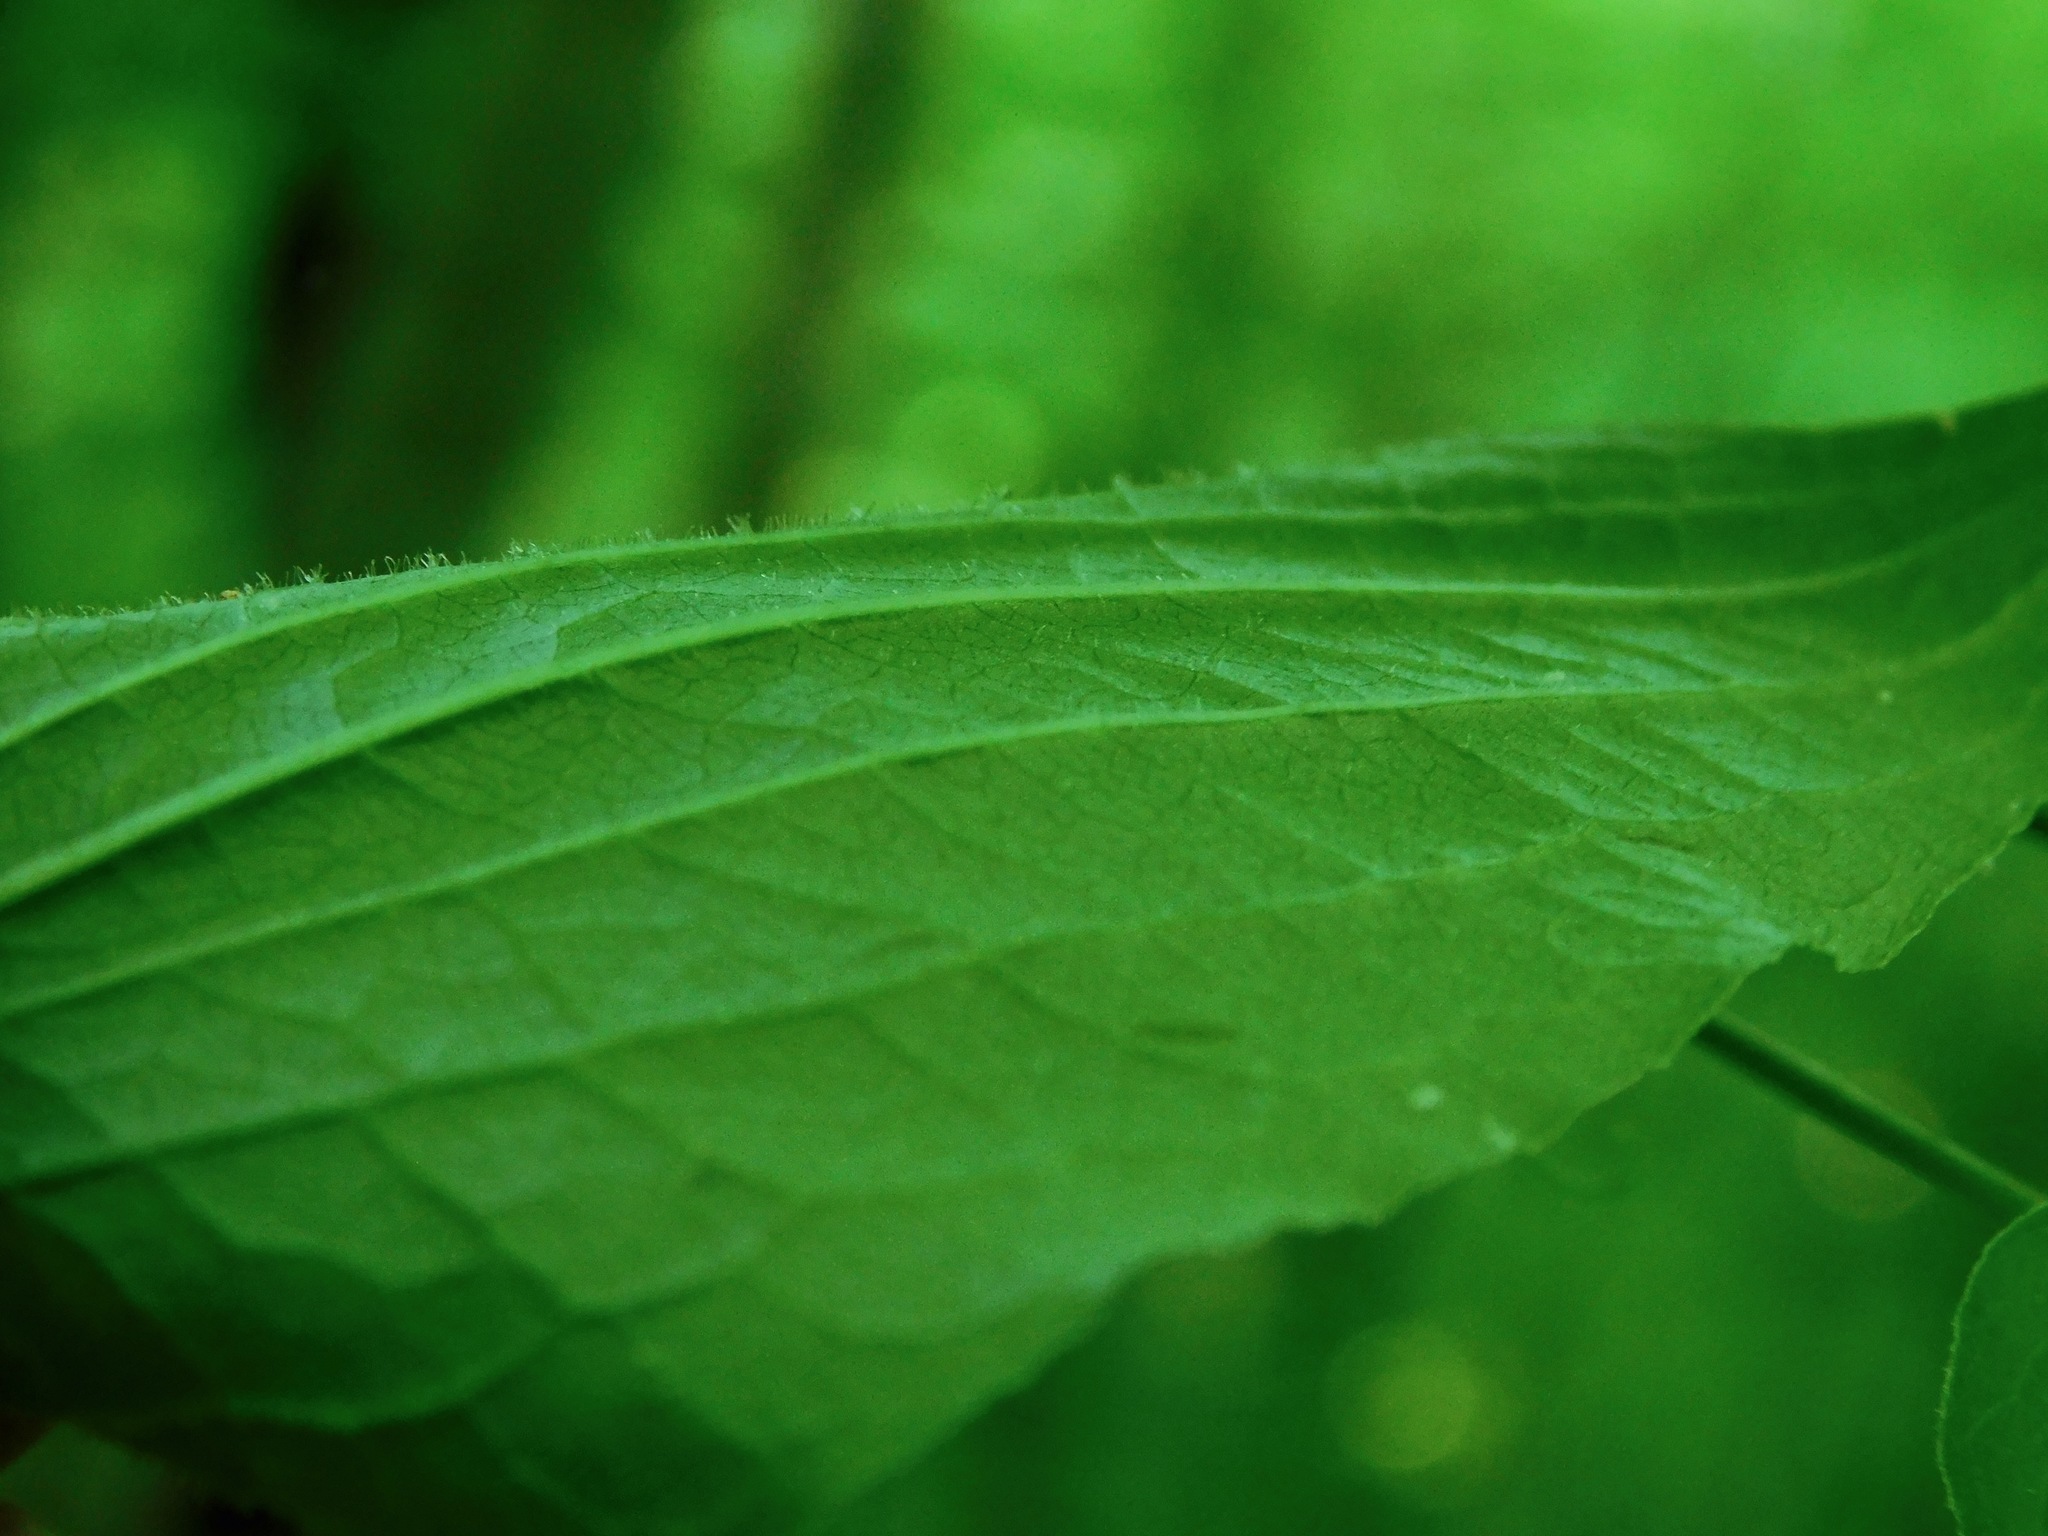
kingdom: Plantae
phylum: Tracheophyta
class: Liliopsida
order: Liliales
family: Smilacaceae
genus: Smilax
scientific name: Smilax pulverulenta
